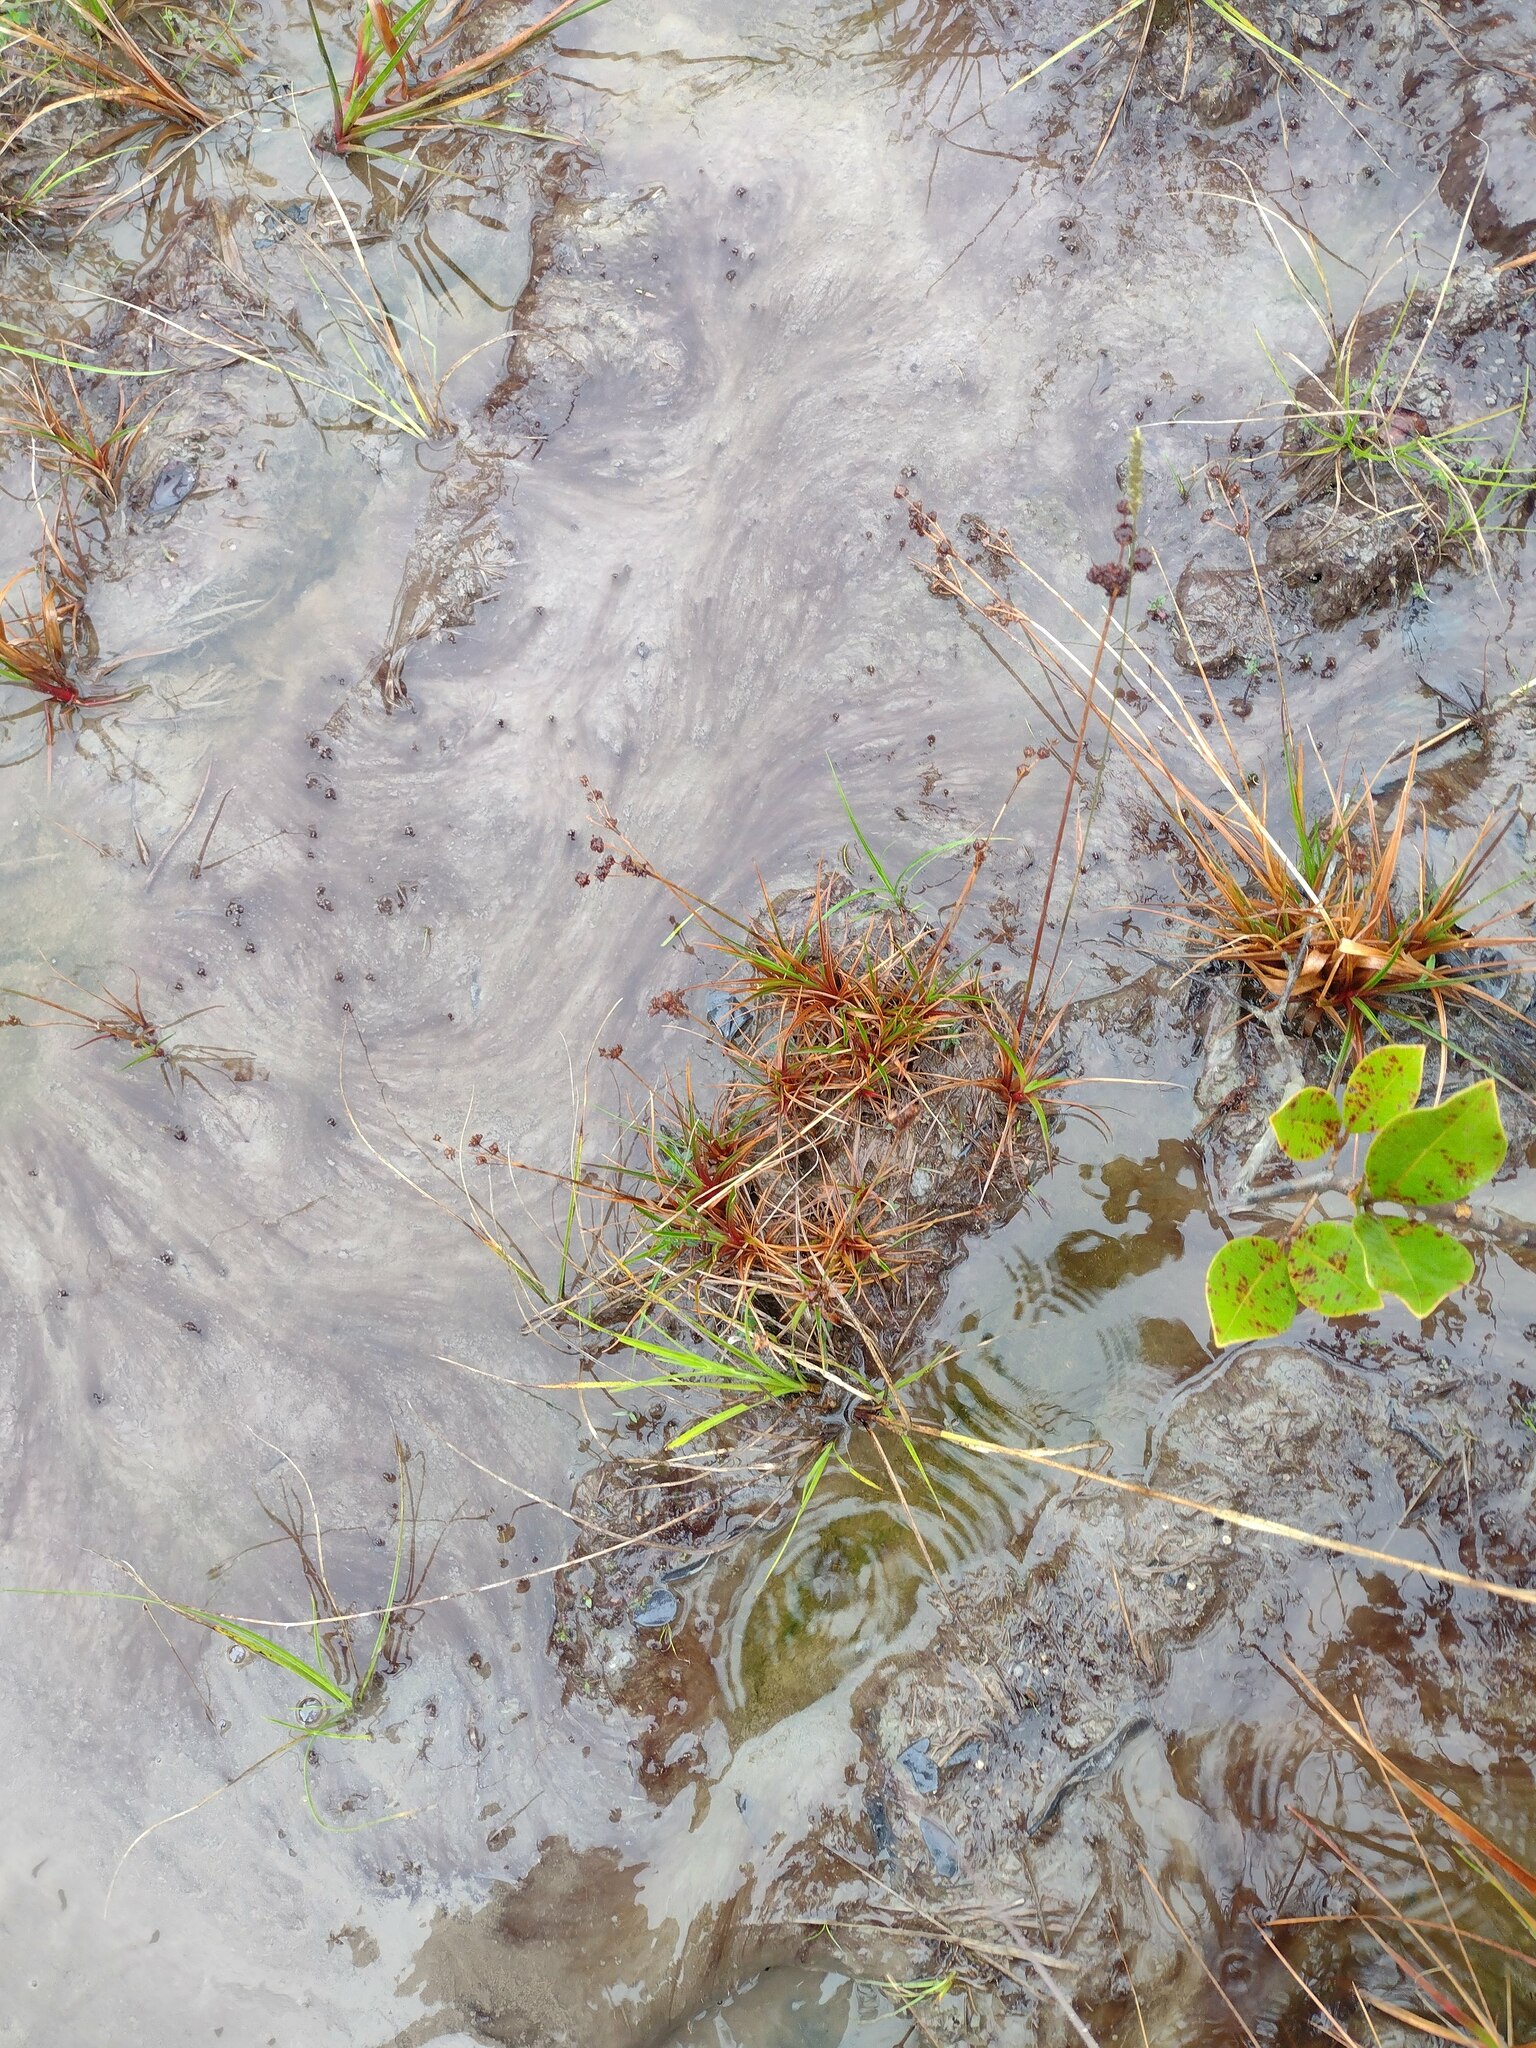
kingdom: Plantae
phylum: Tracheophyta
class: Liliopsida
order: Poales
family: Juncaceae
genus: Juncus
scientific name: Juncus planifolius
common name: Broadleaf rush
